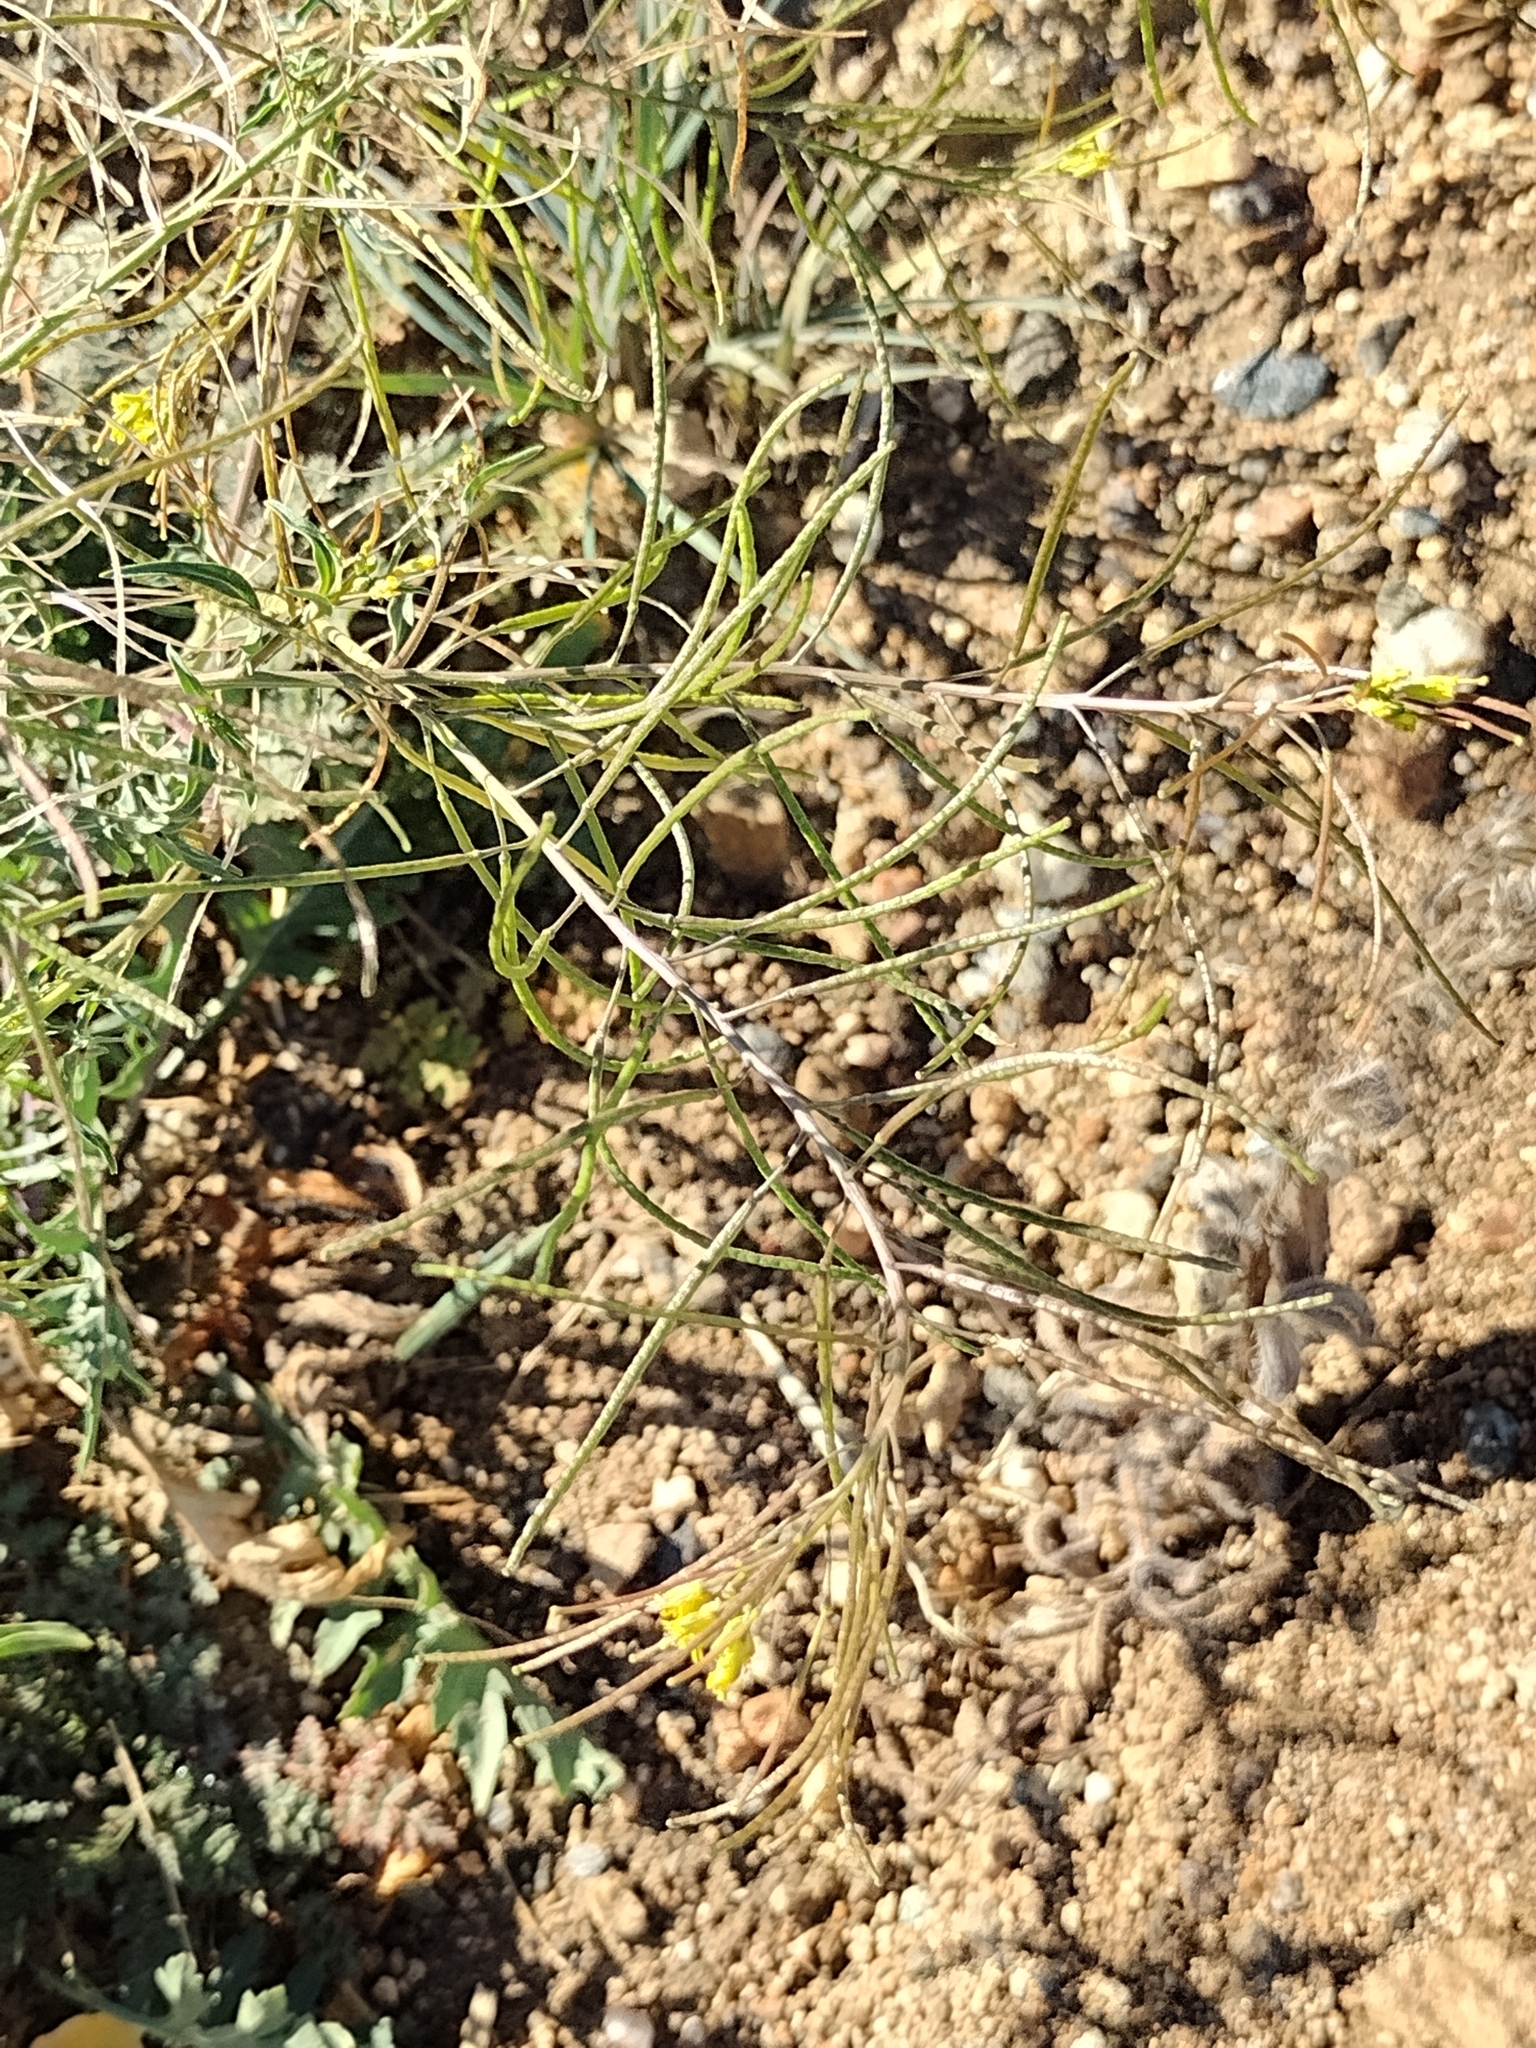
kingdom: Plantae
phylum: Tracheophyta
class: Magnoliopsida
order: Brassicales
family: Brassicaceae
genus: Sisymbrium
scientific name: Sisymbrium altissimum
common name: Tall rocket
